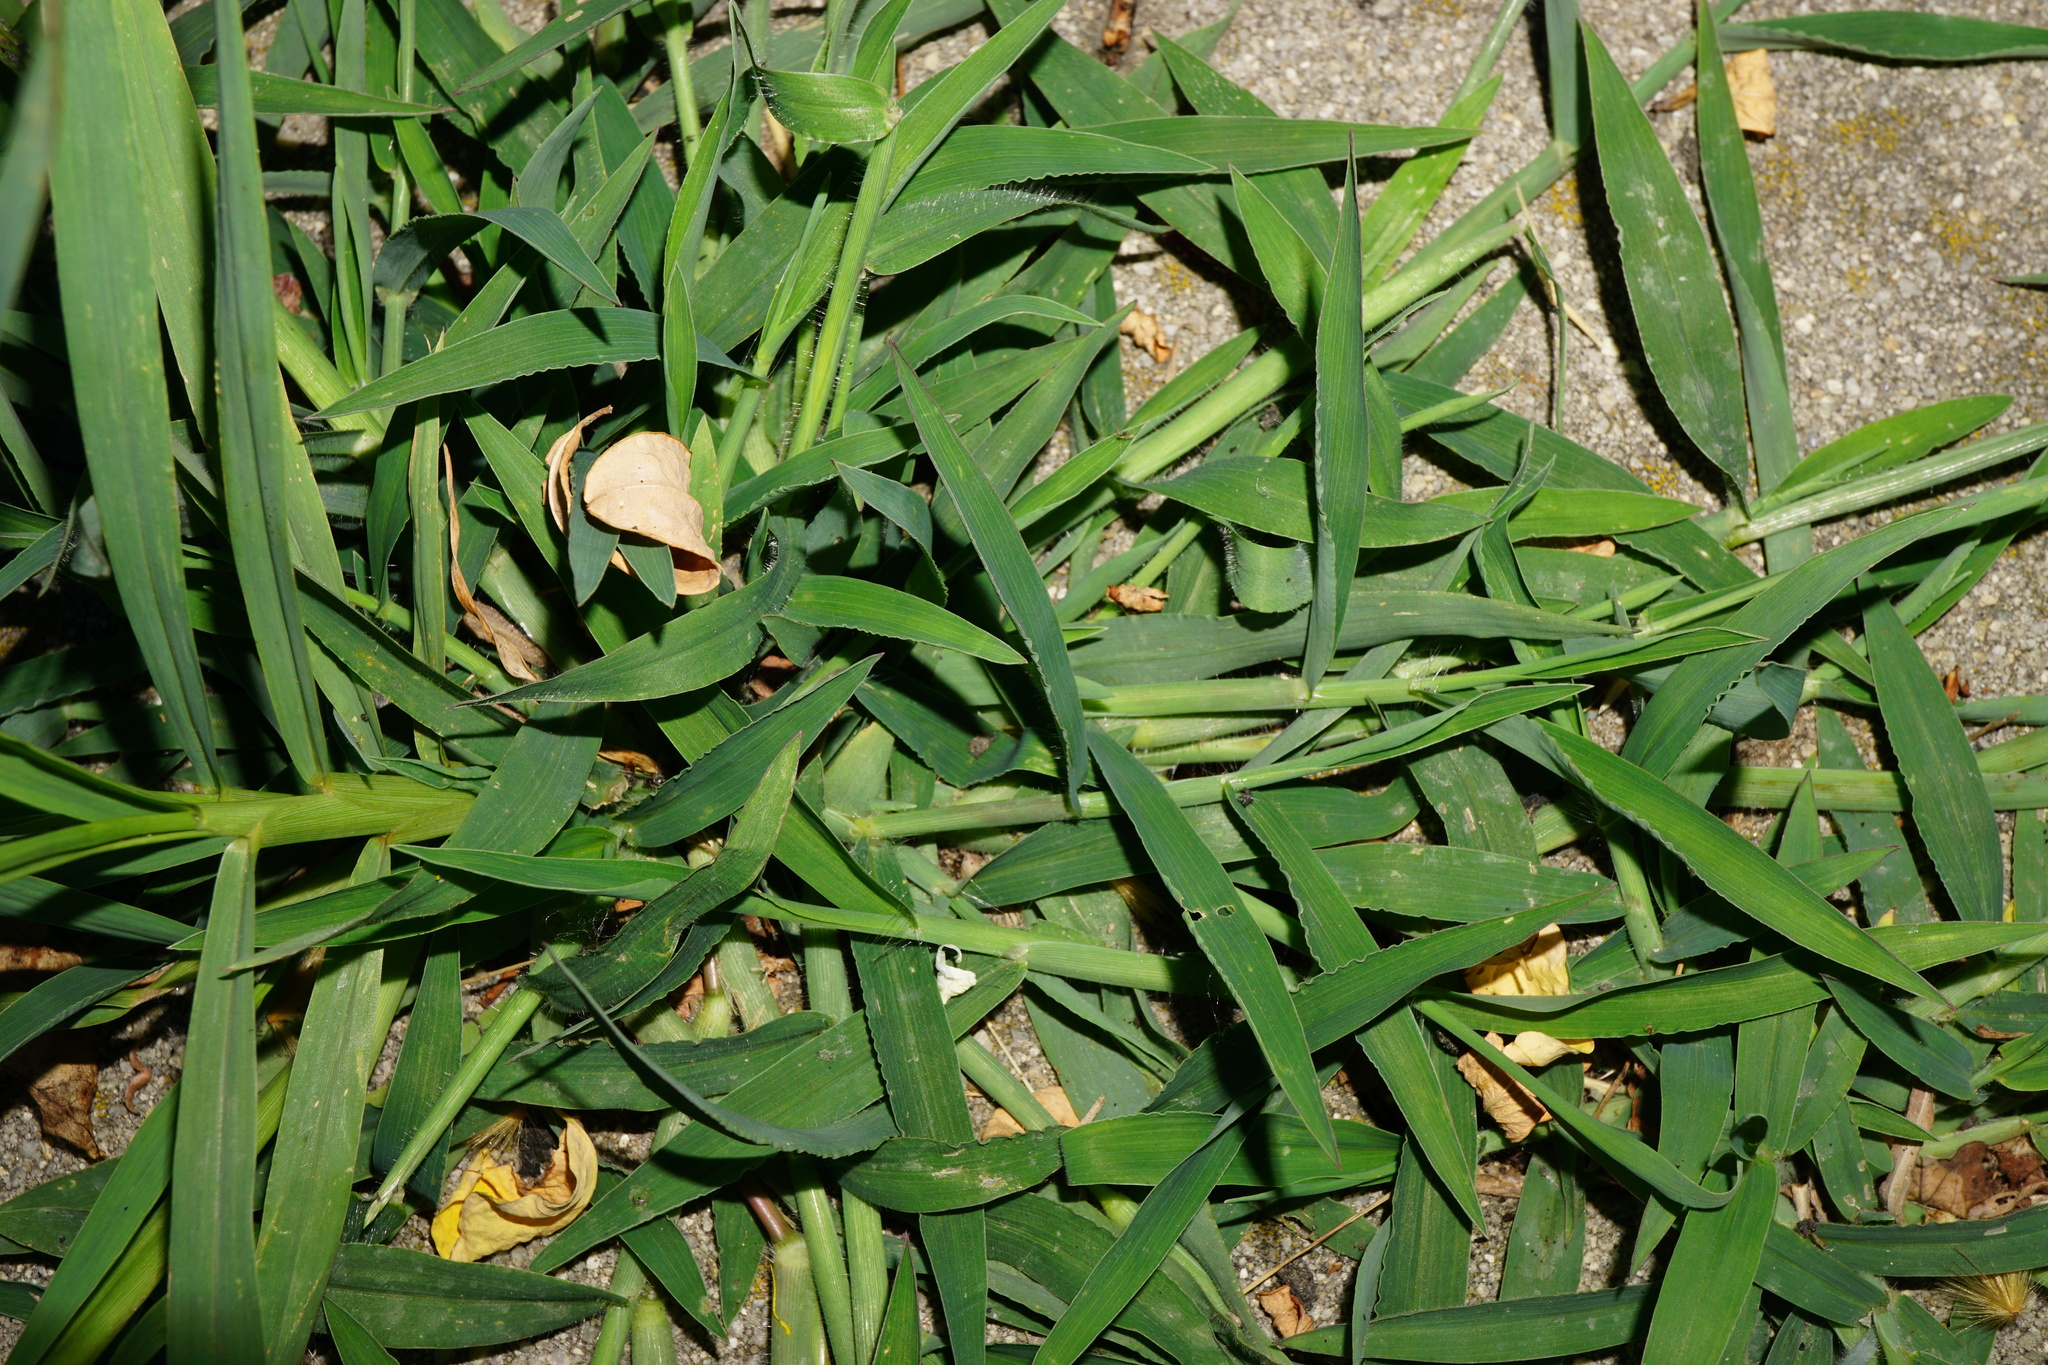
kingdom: Plantae
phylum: Tracheophyta
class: Liliopsida
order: Poales
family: Poaceae
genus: Digitaria
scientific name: Digitaria sanguinalis
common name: Hairy crabgrass
